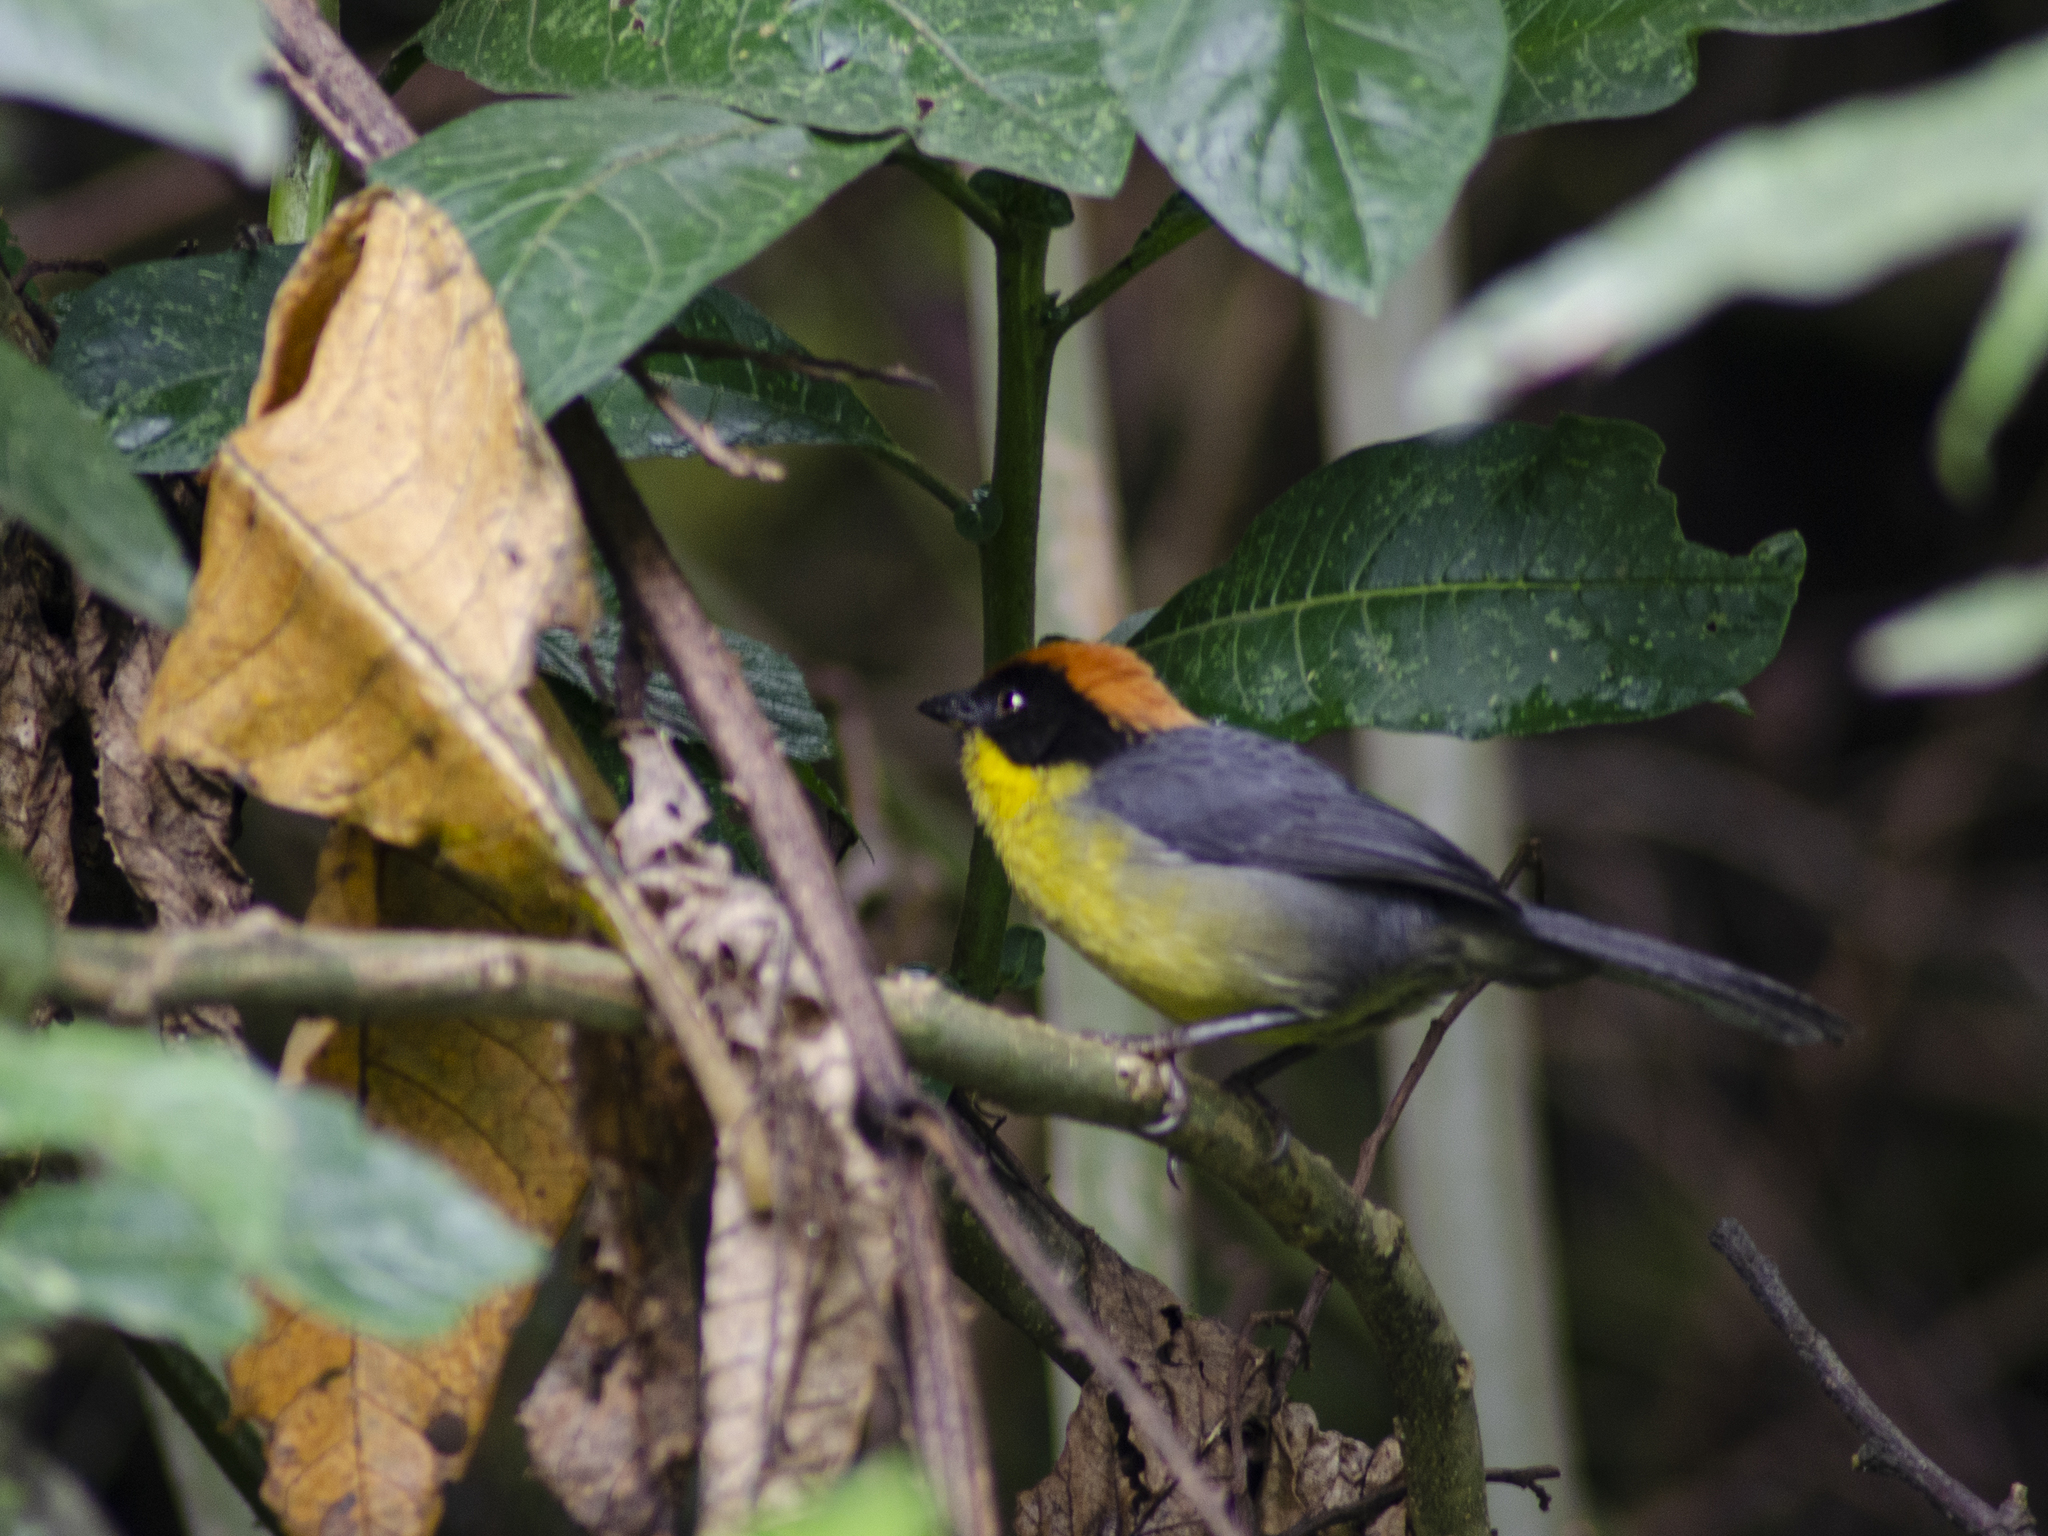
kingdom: Animalia
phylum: Chordata
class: Aves
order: Passeriformes
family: Passerellidae
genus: Atlapetes
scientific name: Atlapetes latinuchus
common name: Yellow-breasted brushfinch
